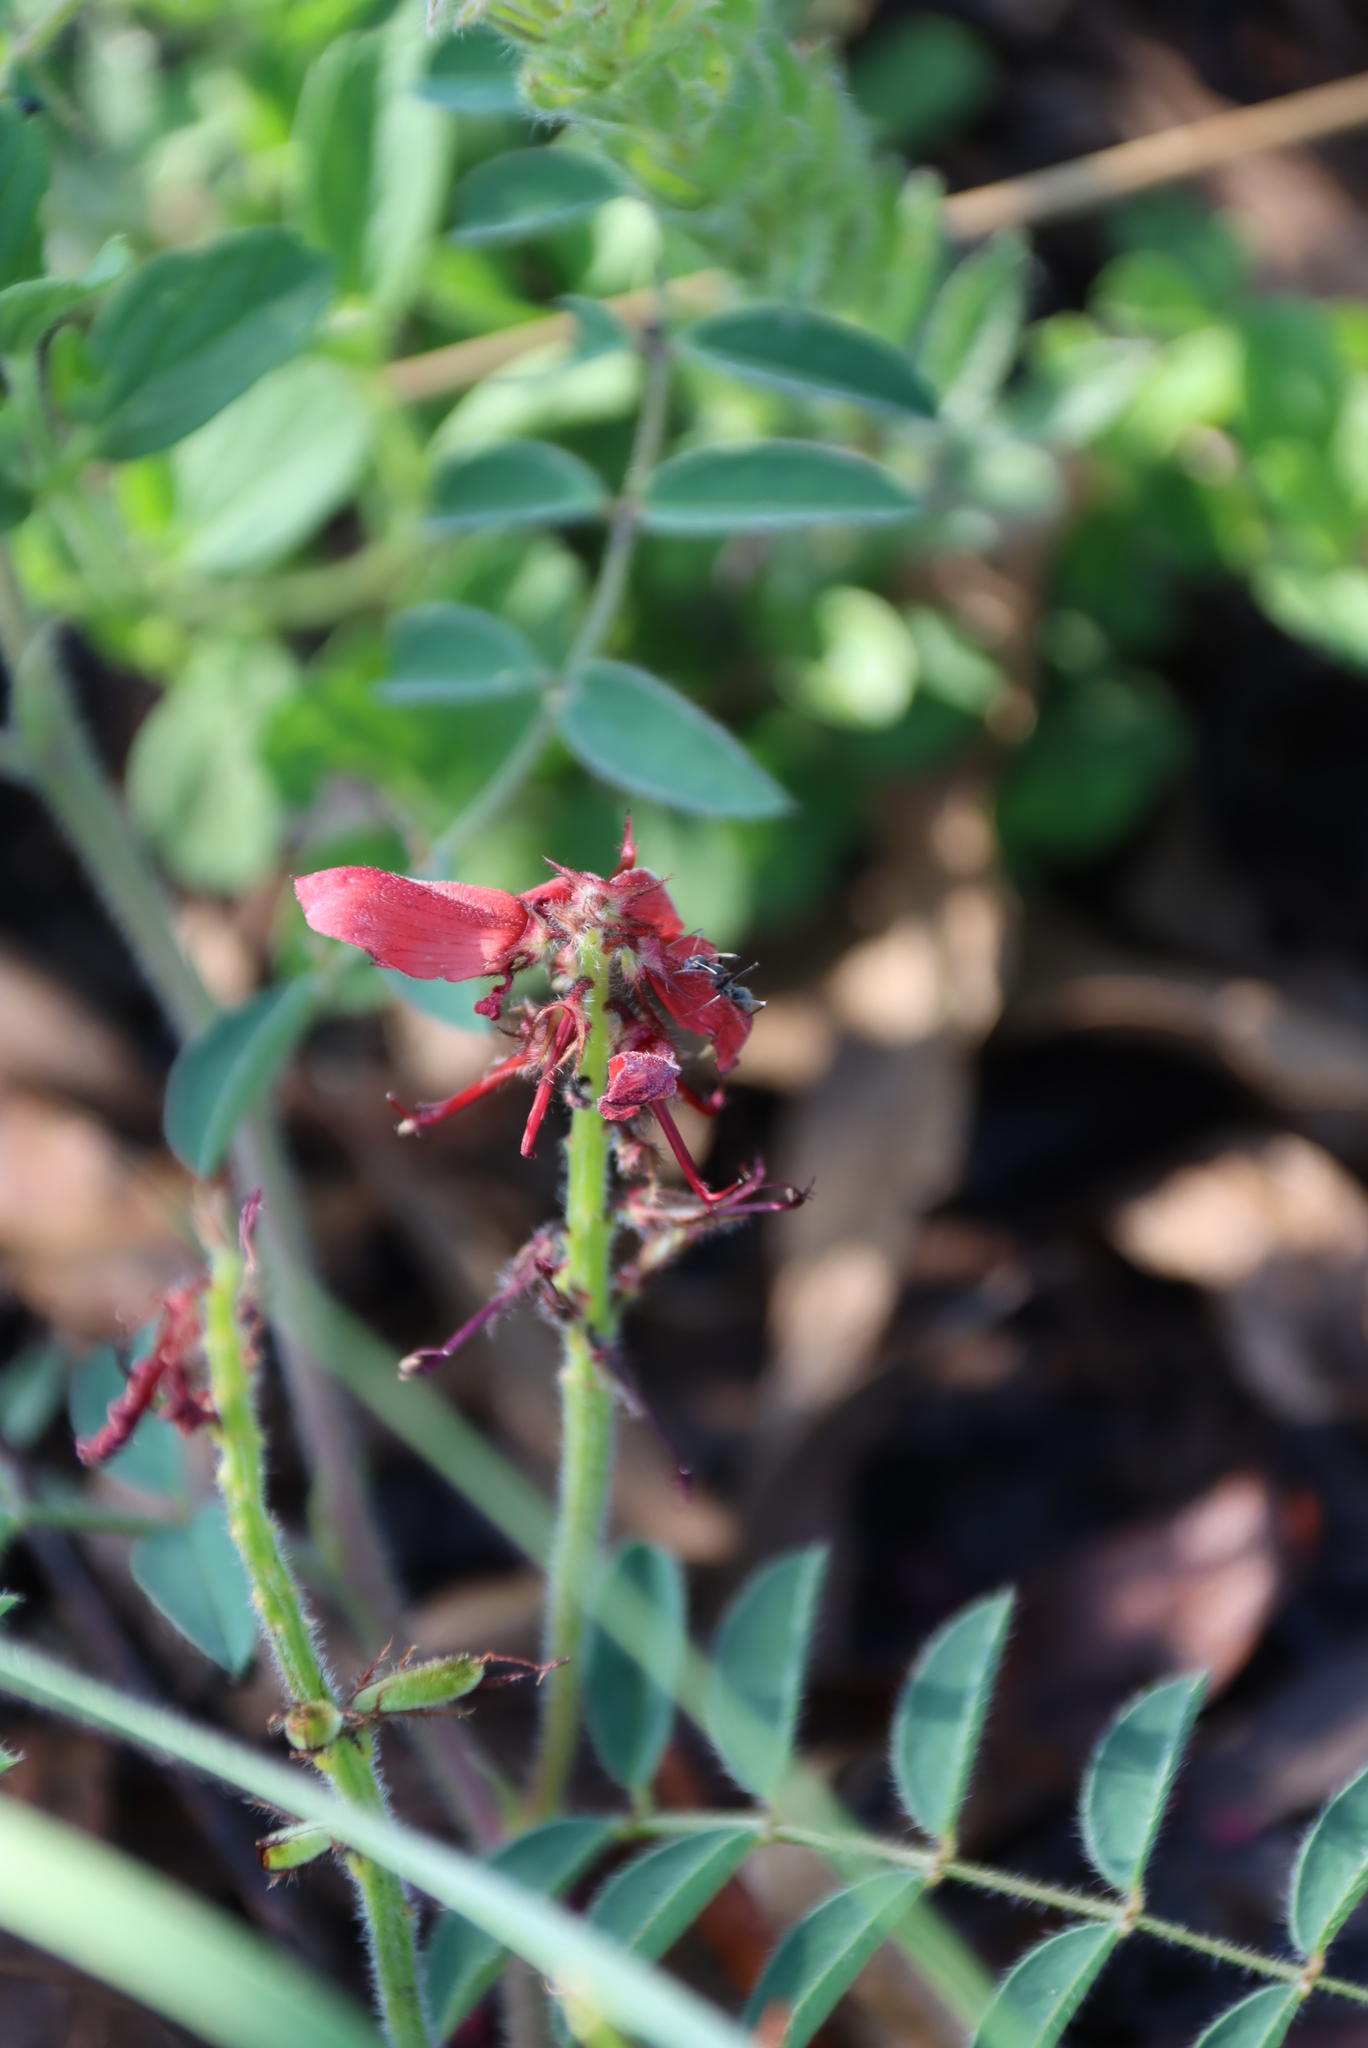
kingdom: Plantae
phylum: Tracheophyta
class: Magnoliopsida
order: Fabales
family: Fabaceae
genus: Indigofera
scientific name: Indigofera williamsonii
